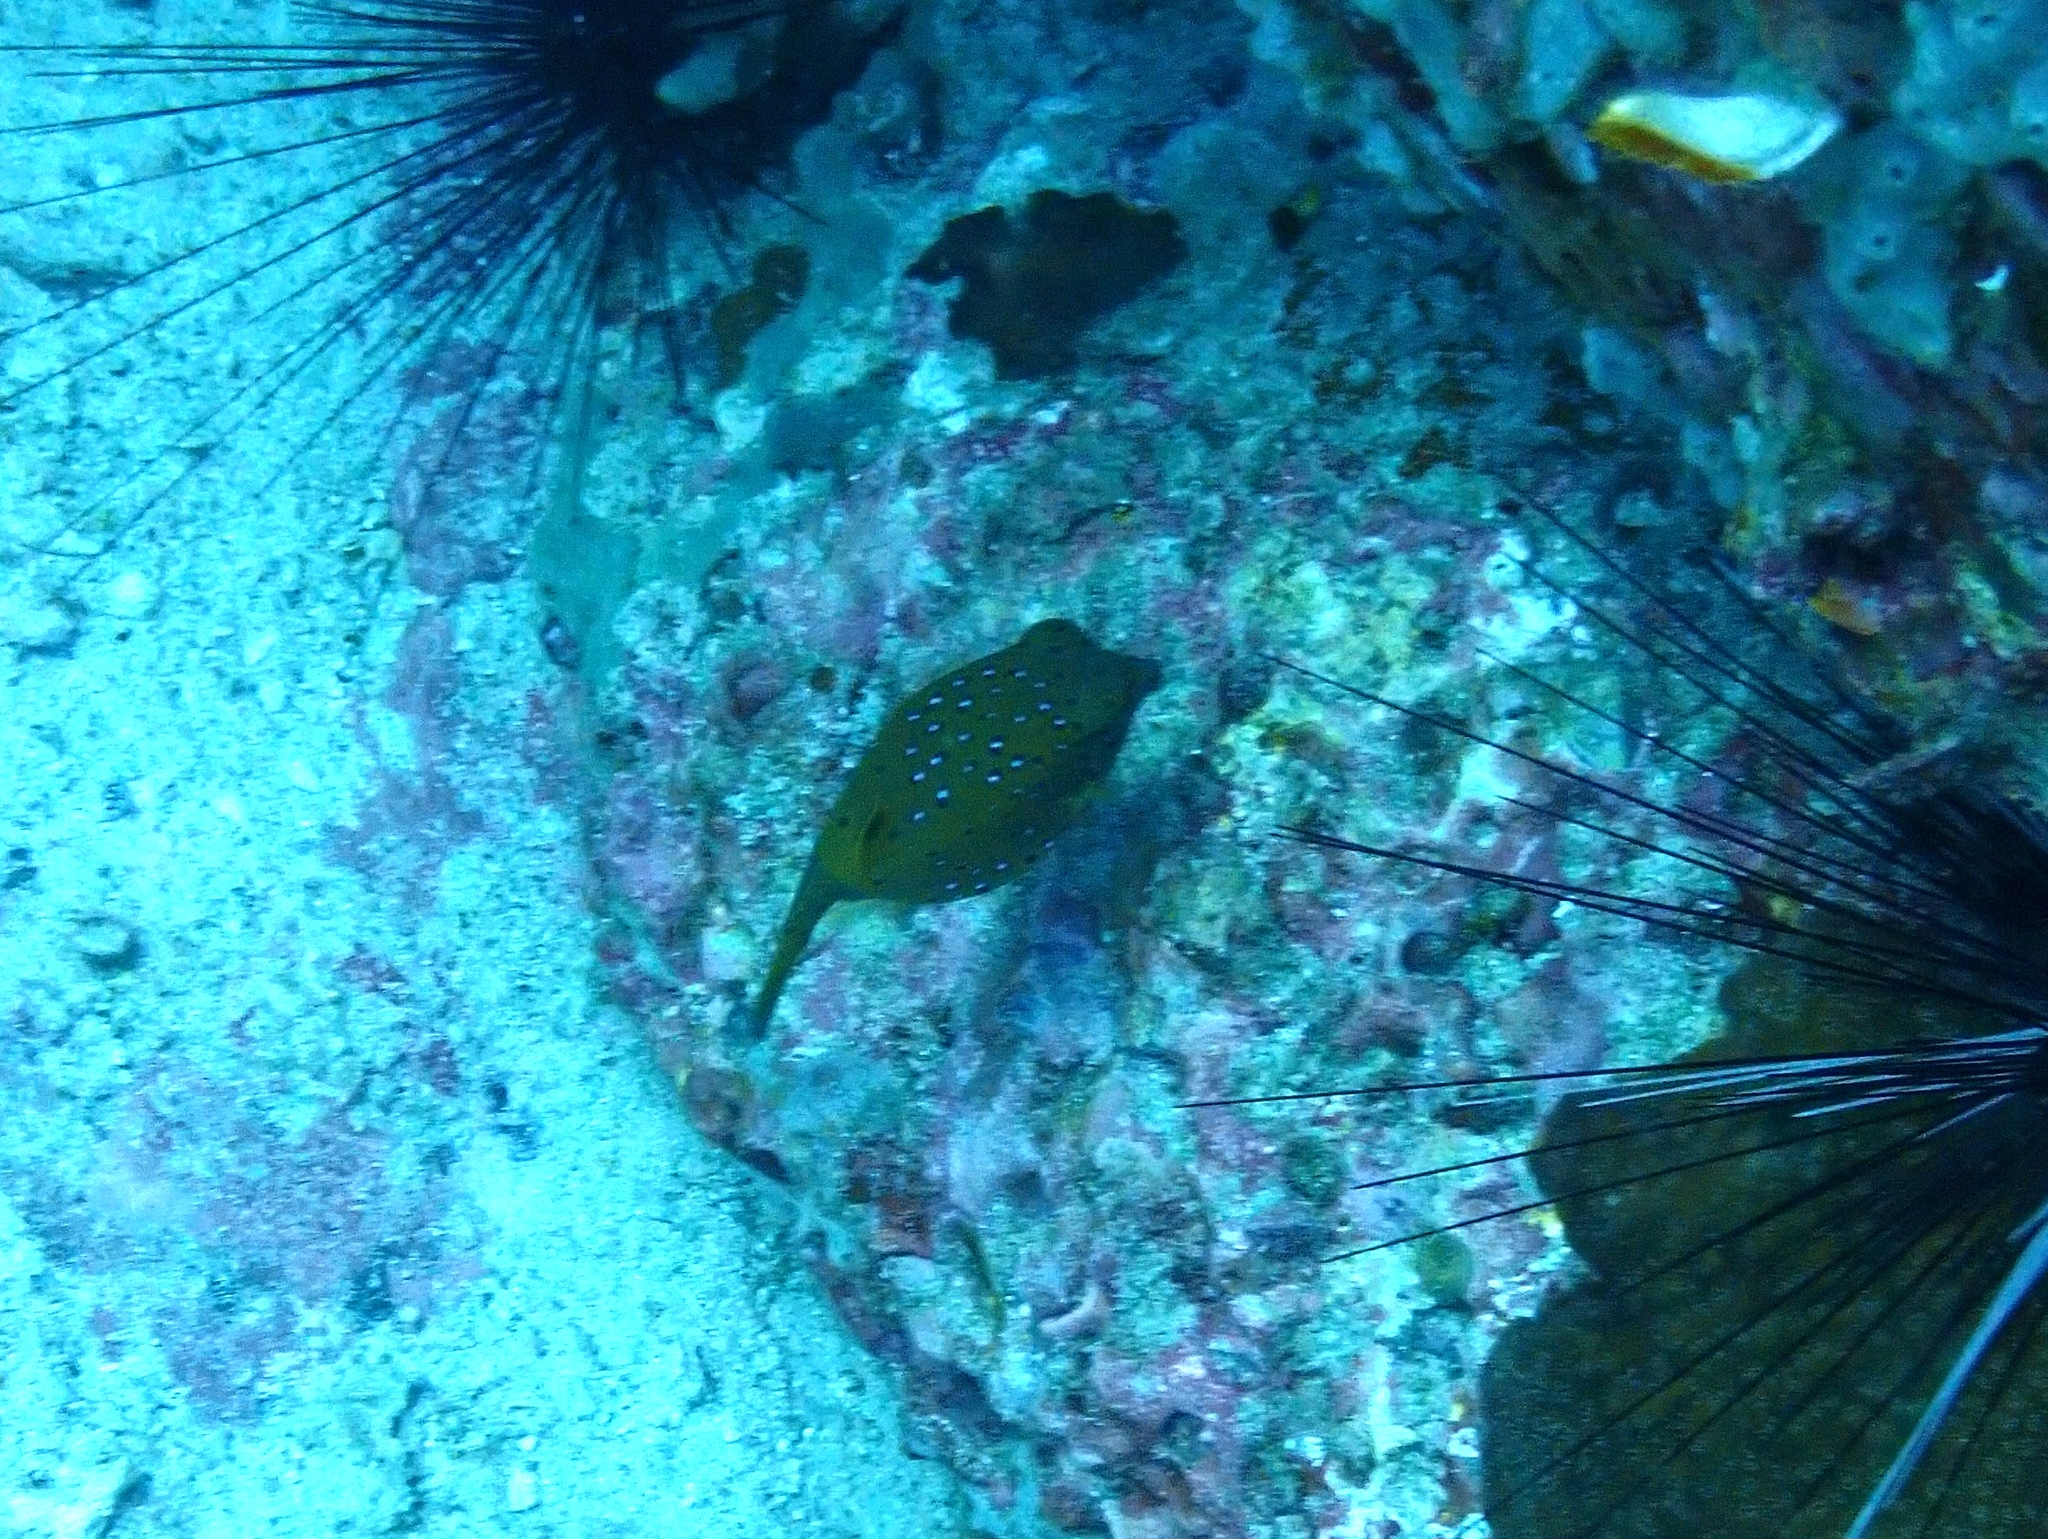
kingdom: Animalia
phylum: Chordata
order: Tetraodontiformes
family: Ostraciidae
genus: Ostracion
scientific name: Ostracion cubicus
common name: Cube trunkfish
